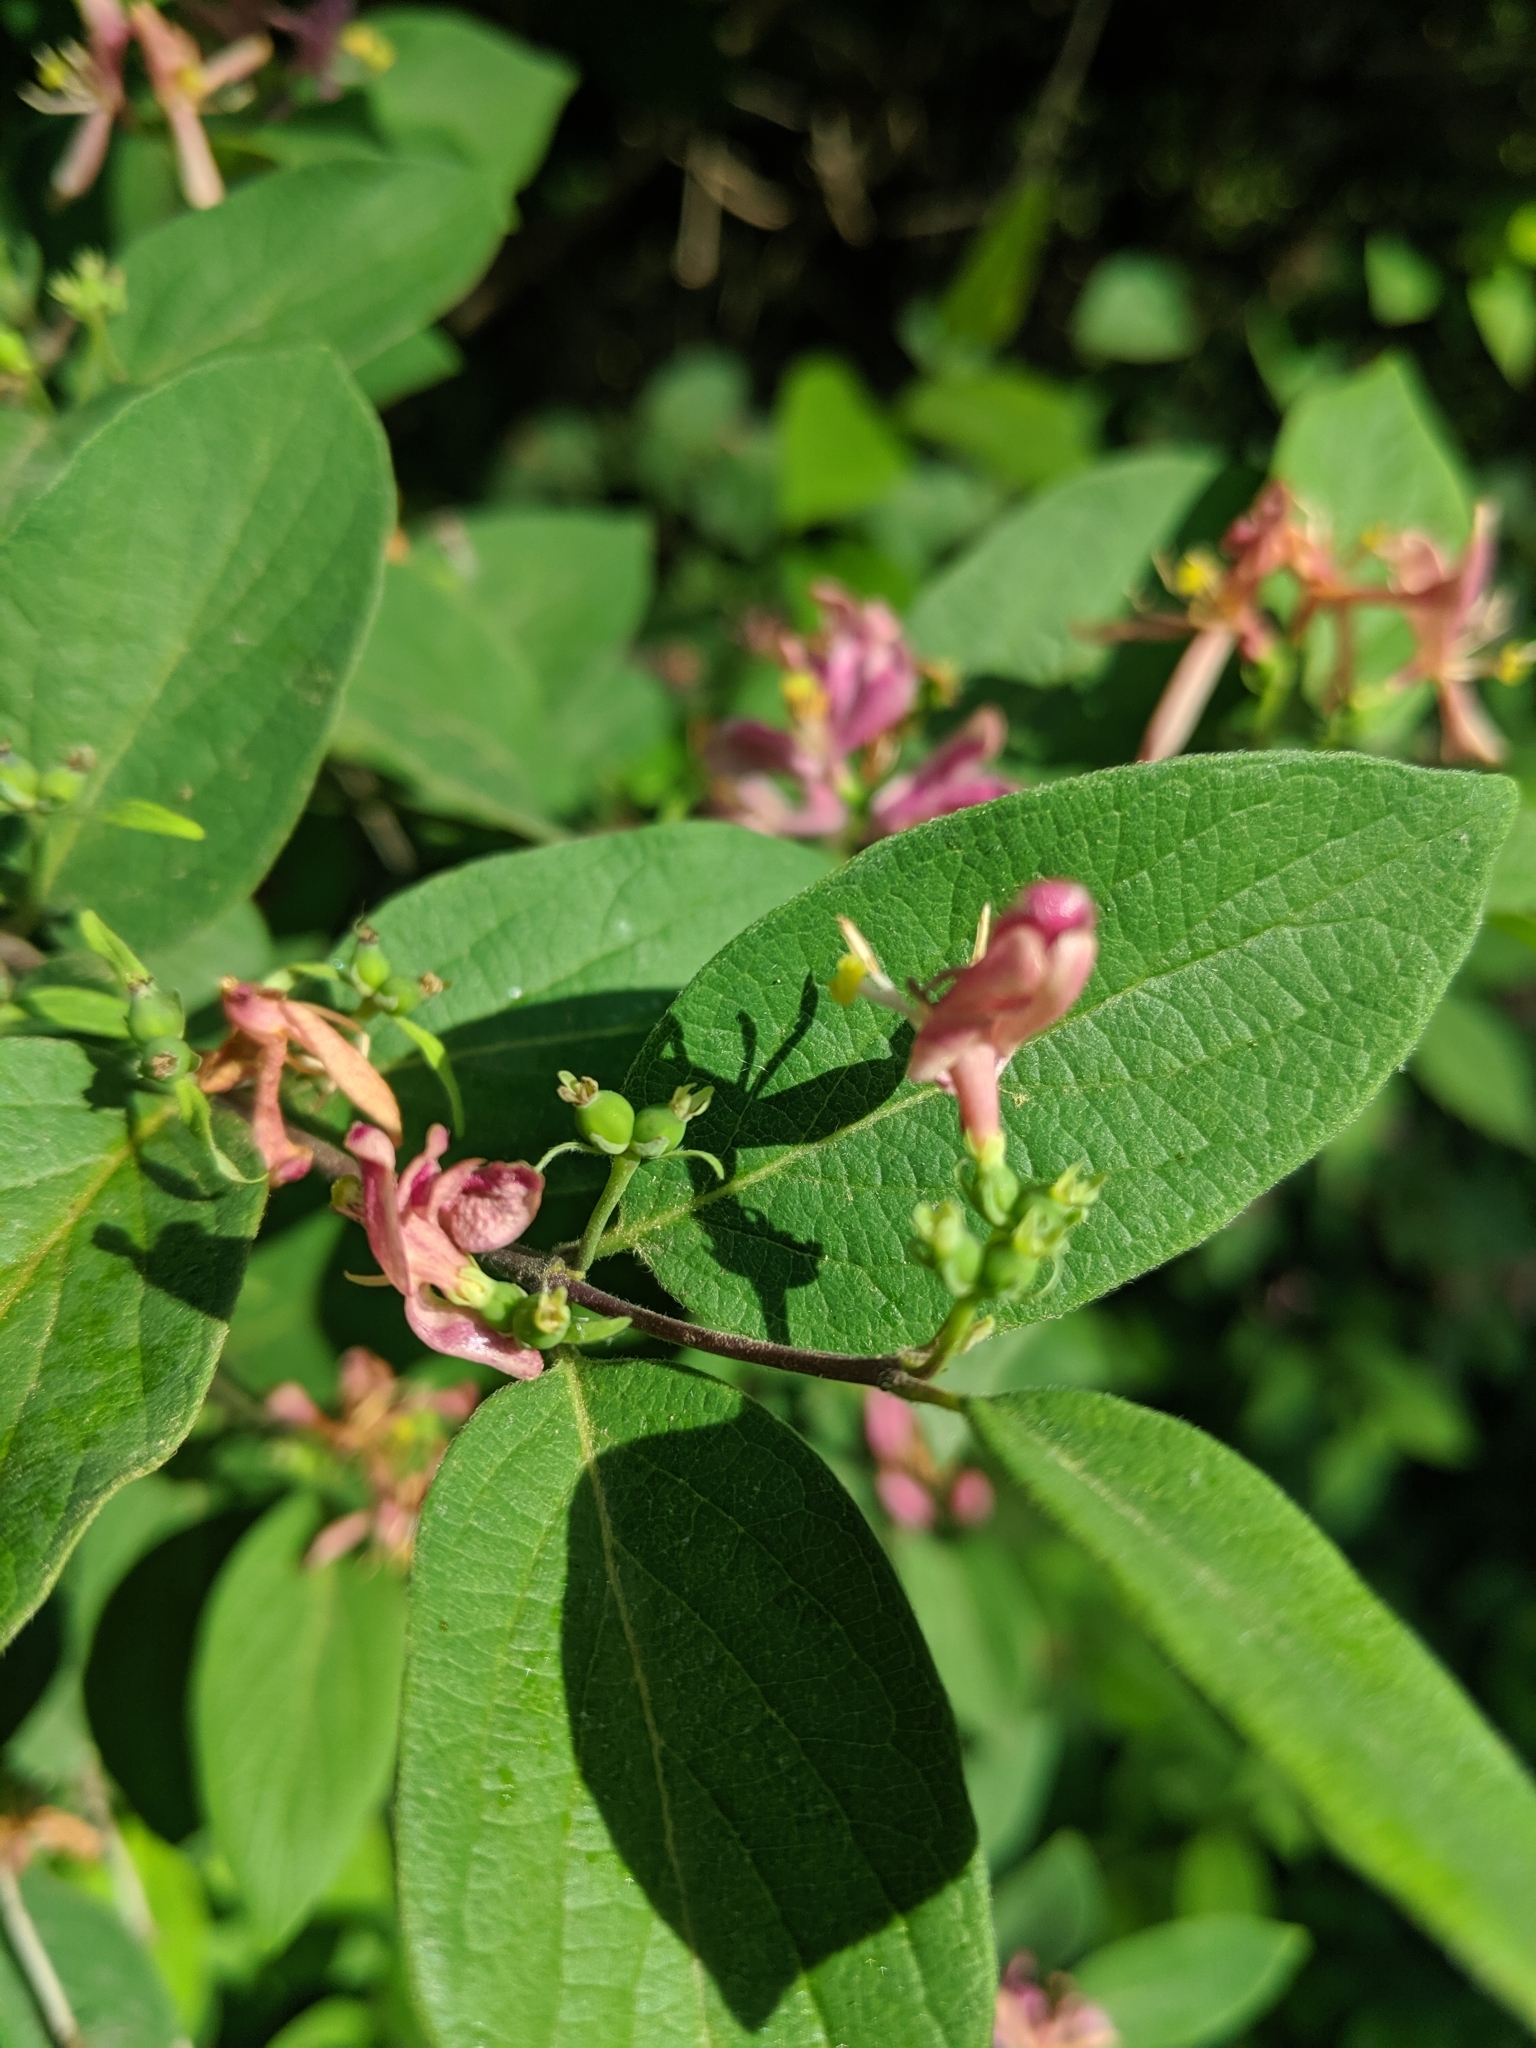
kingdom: Plantae
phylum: Tracheophyta
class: Magnoliopsida
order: Dipsacales
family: Caprifoliaceae
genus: Lonicera
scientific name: Lonicera bella
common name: Bell's honeysuckle
